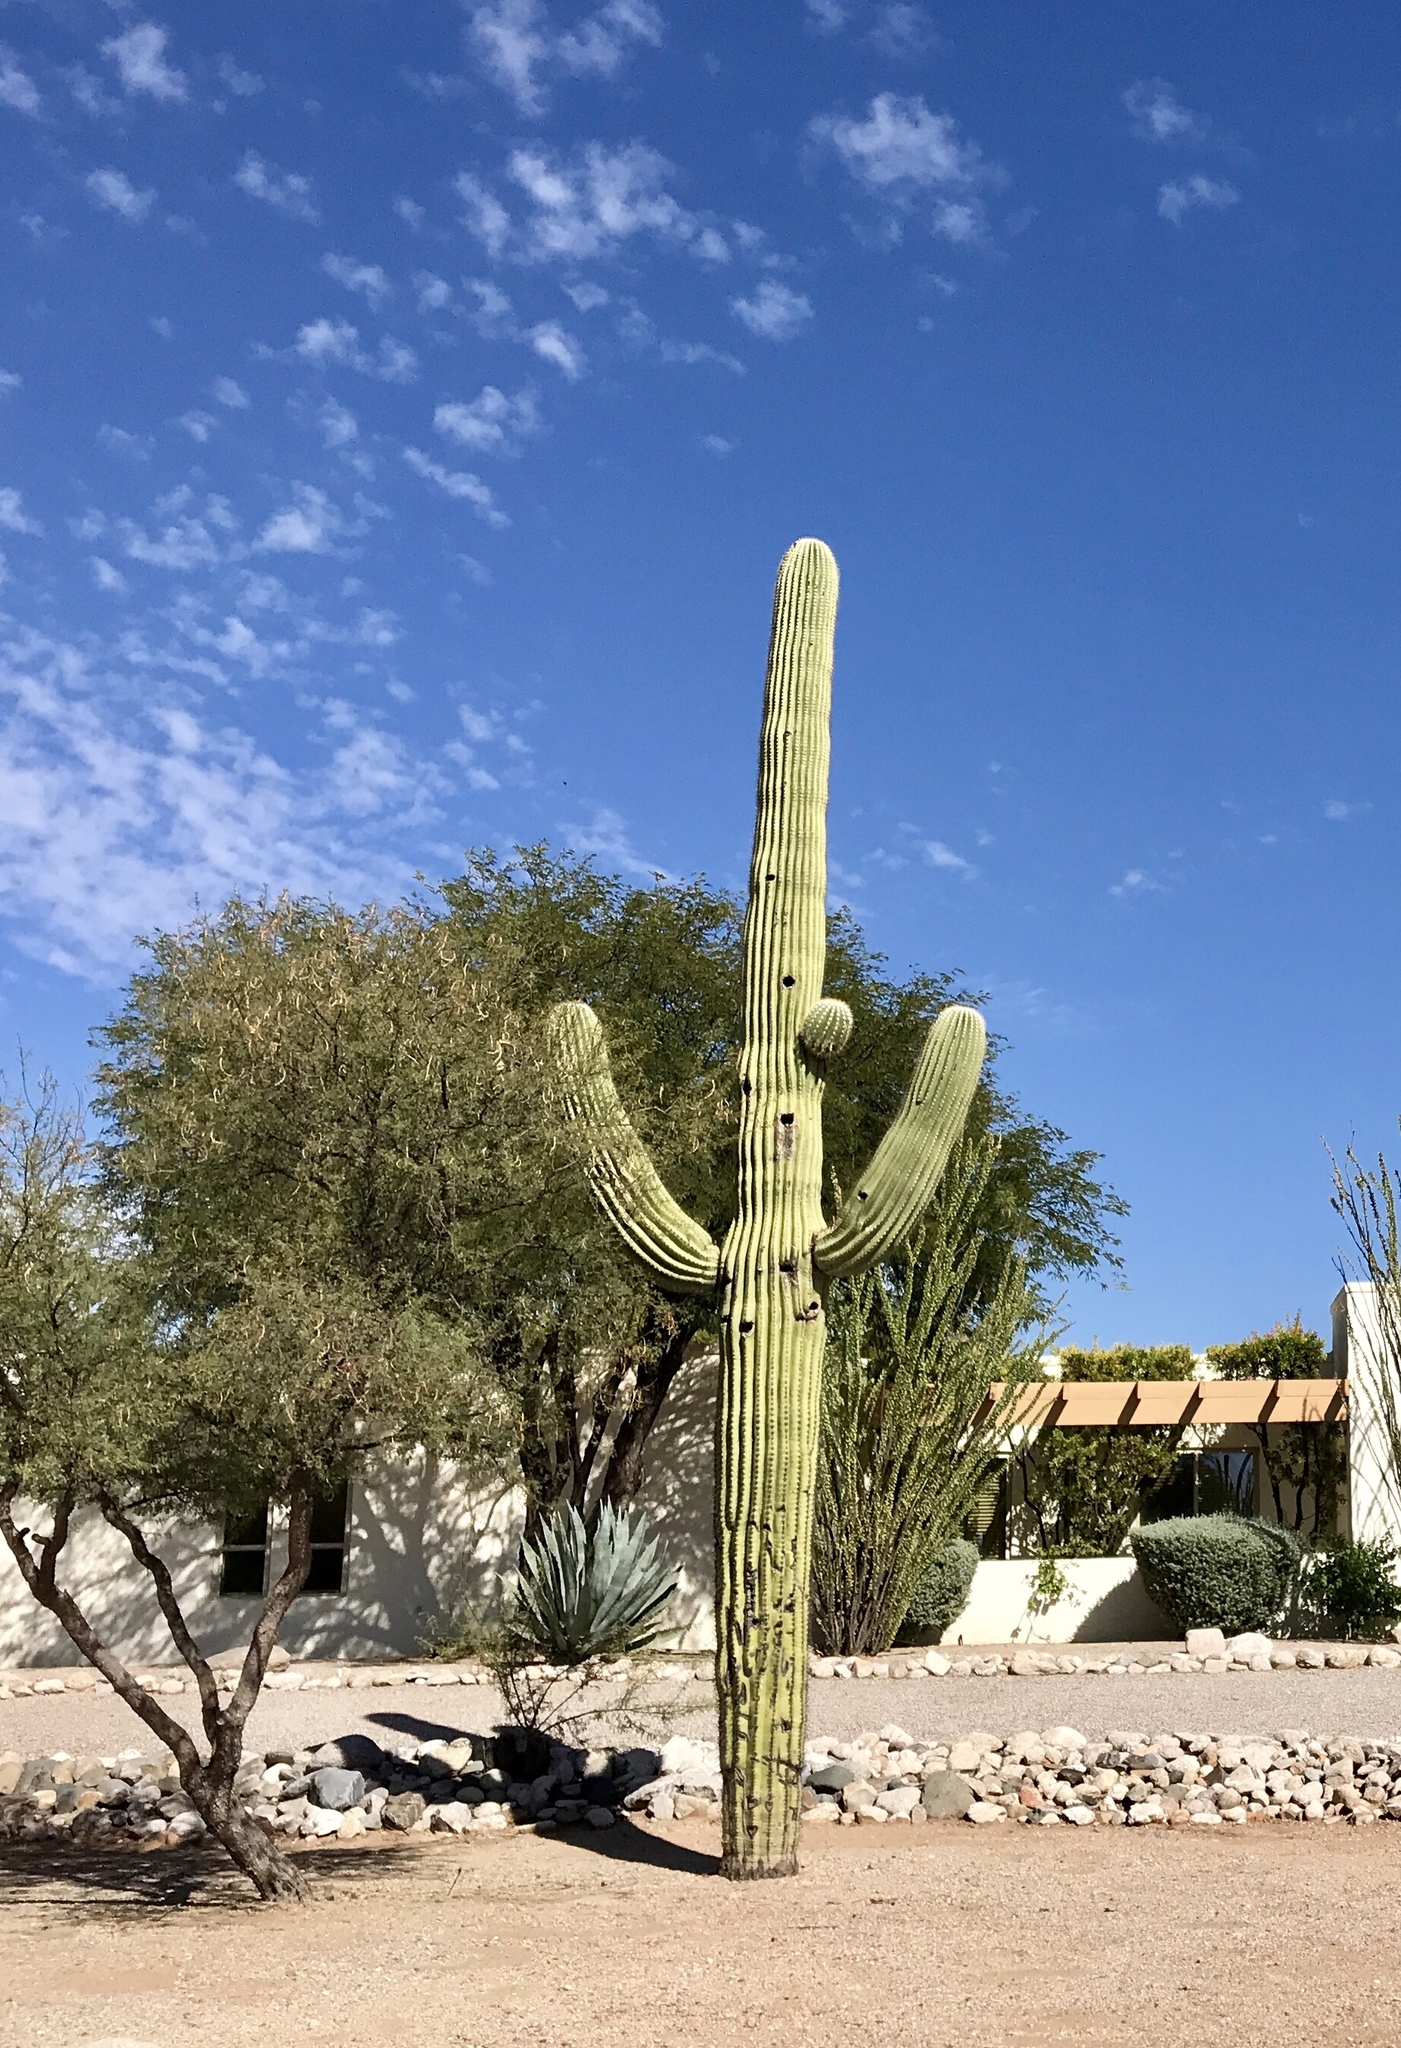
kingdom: Plantae
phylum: Tracheophyta
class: Magnoliopsida
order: Caryophyllales
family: Cactaceae
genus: Carnegiea
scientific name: Carnegiea gigantea
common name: Saguaro
